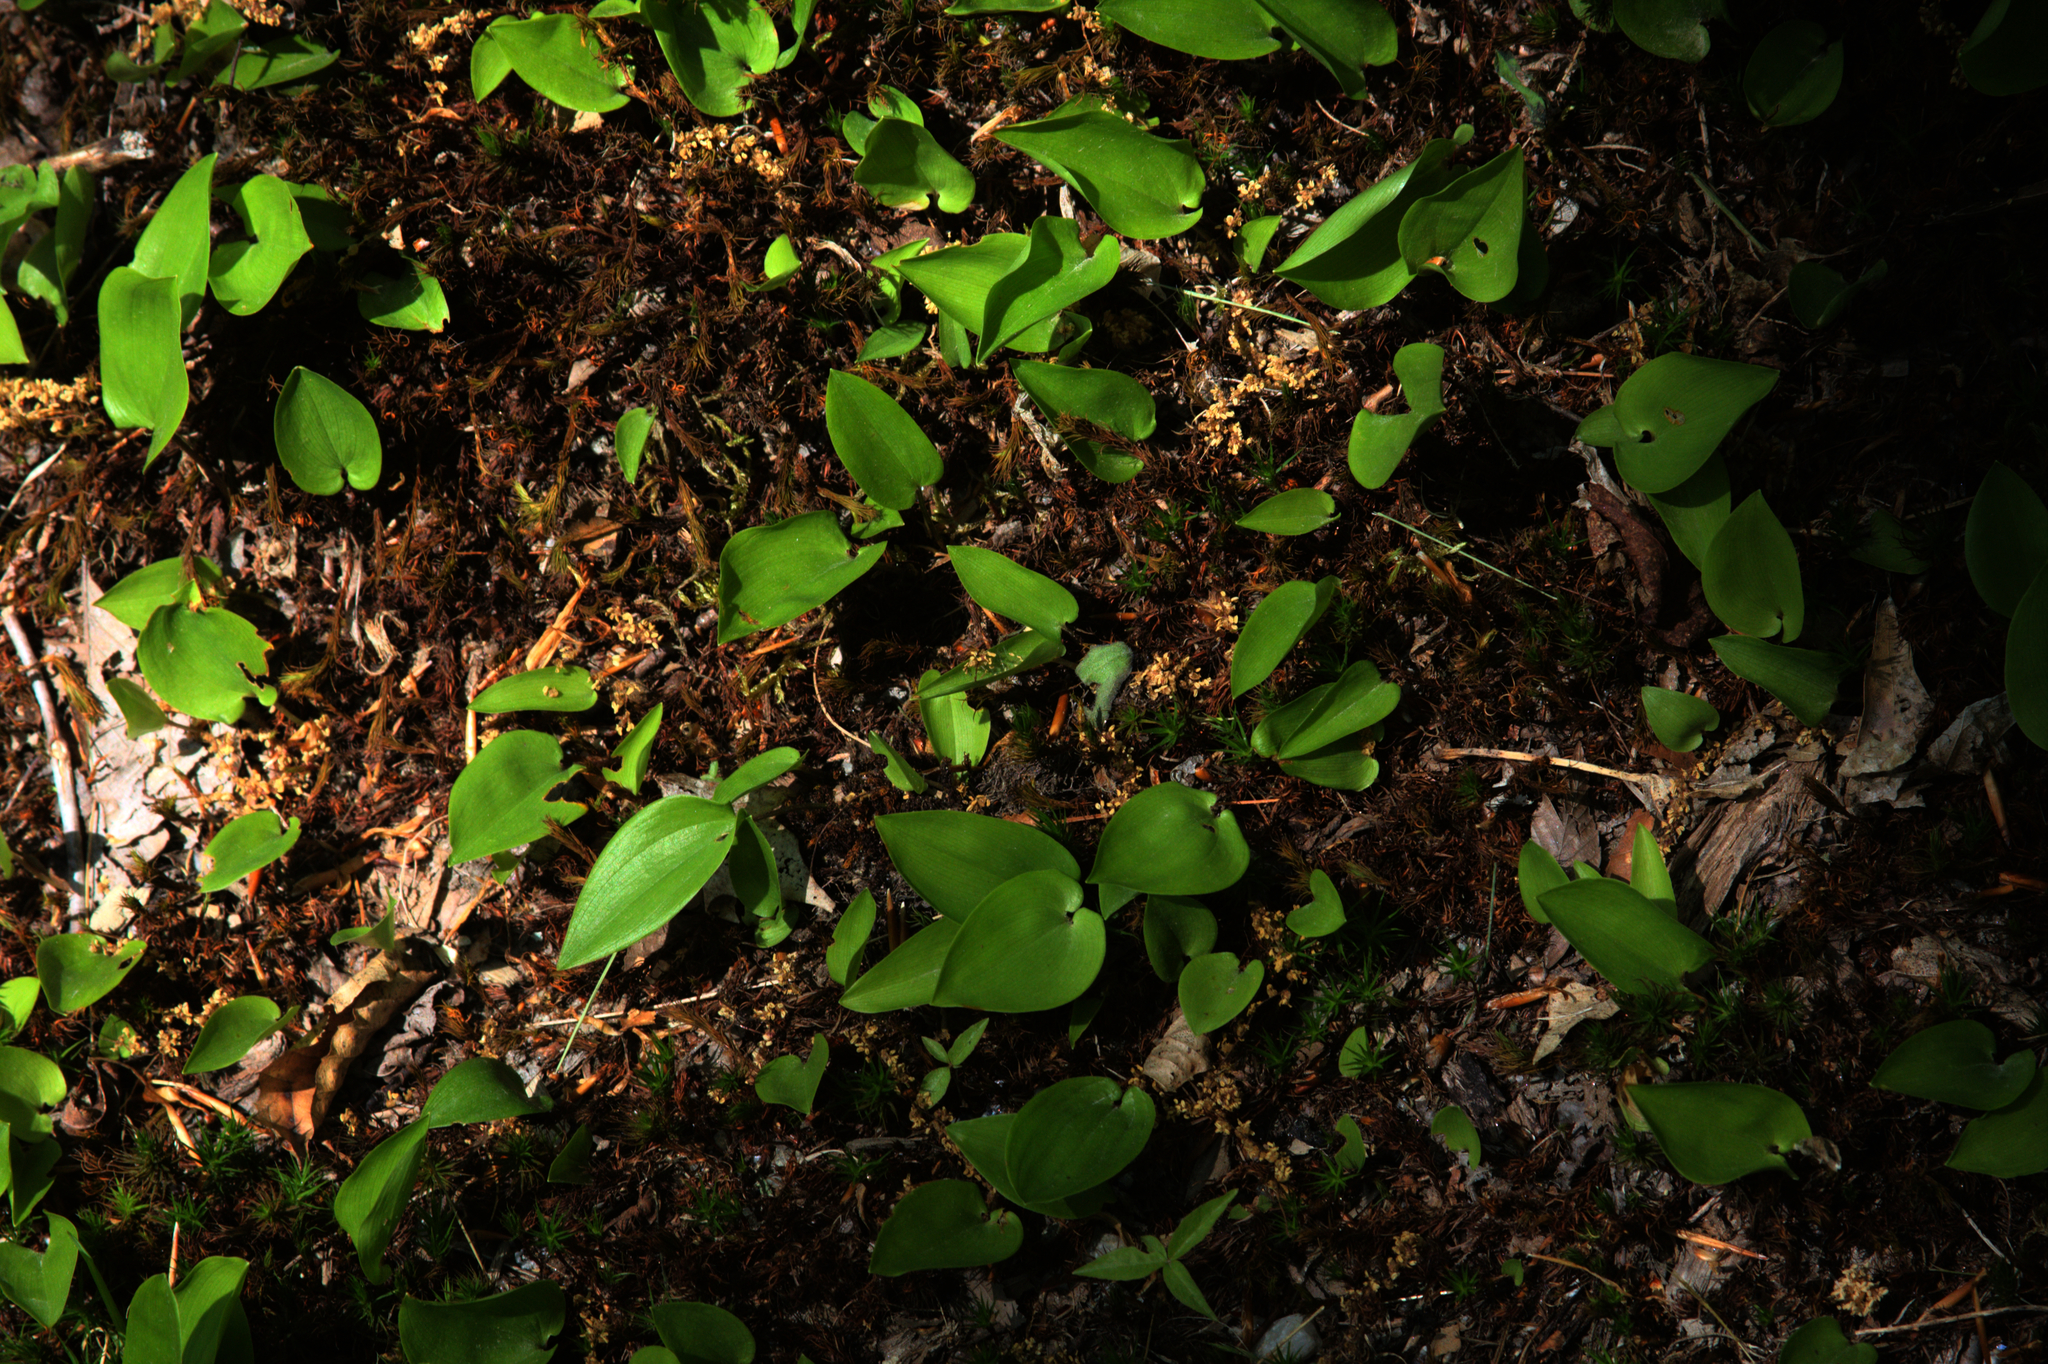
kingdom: Plantae
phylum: Tracheophyta
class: Liliopsida
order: Asparagales
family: Asparagaceae
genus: Maianthemum
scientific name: Maianthemum canadense
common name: False lily-of-the-valley
